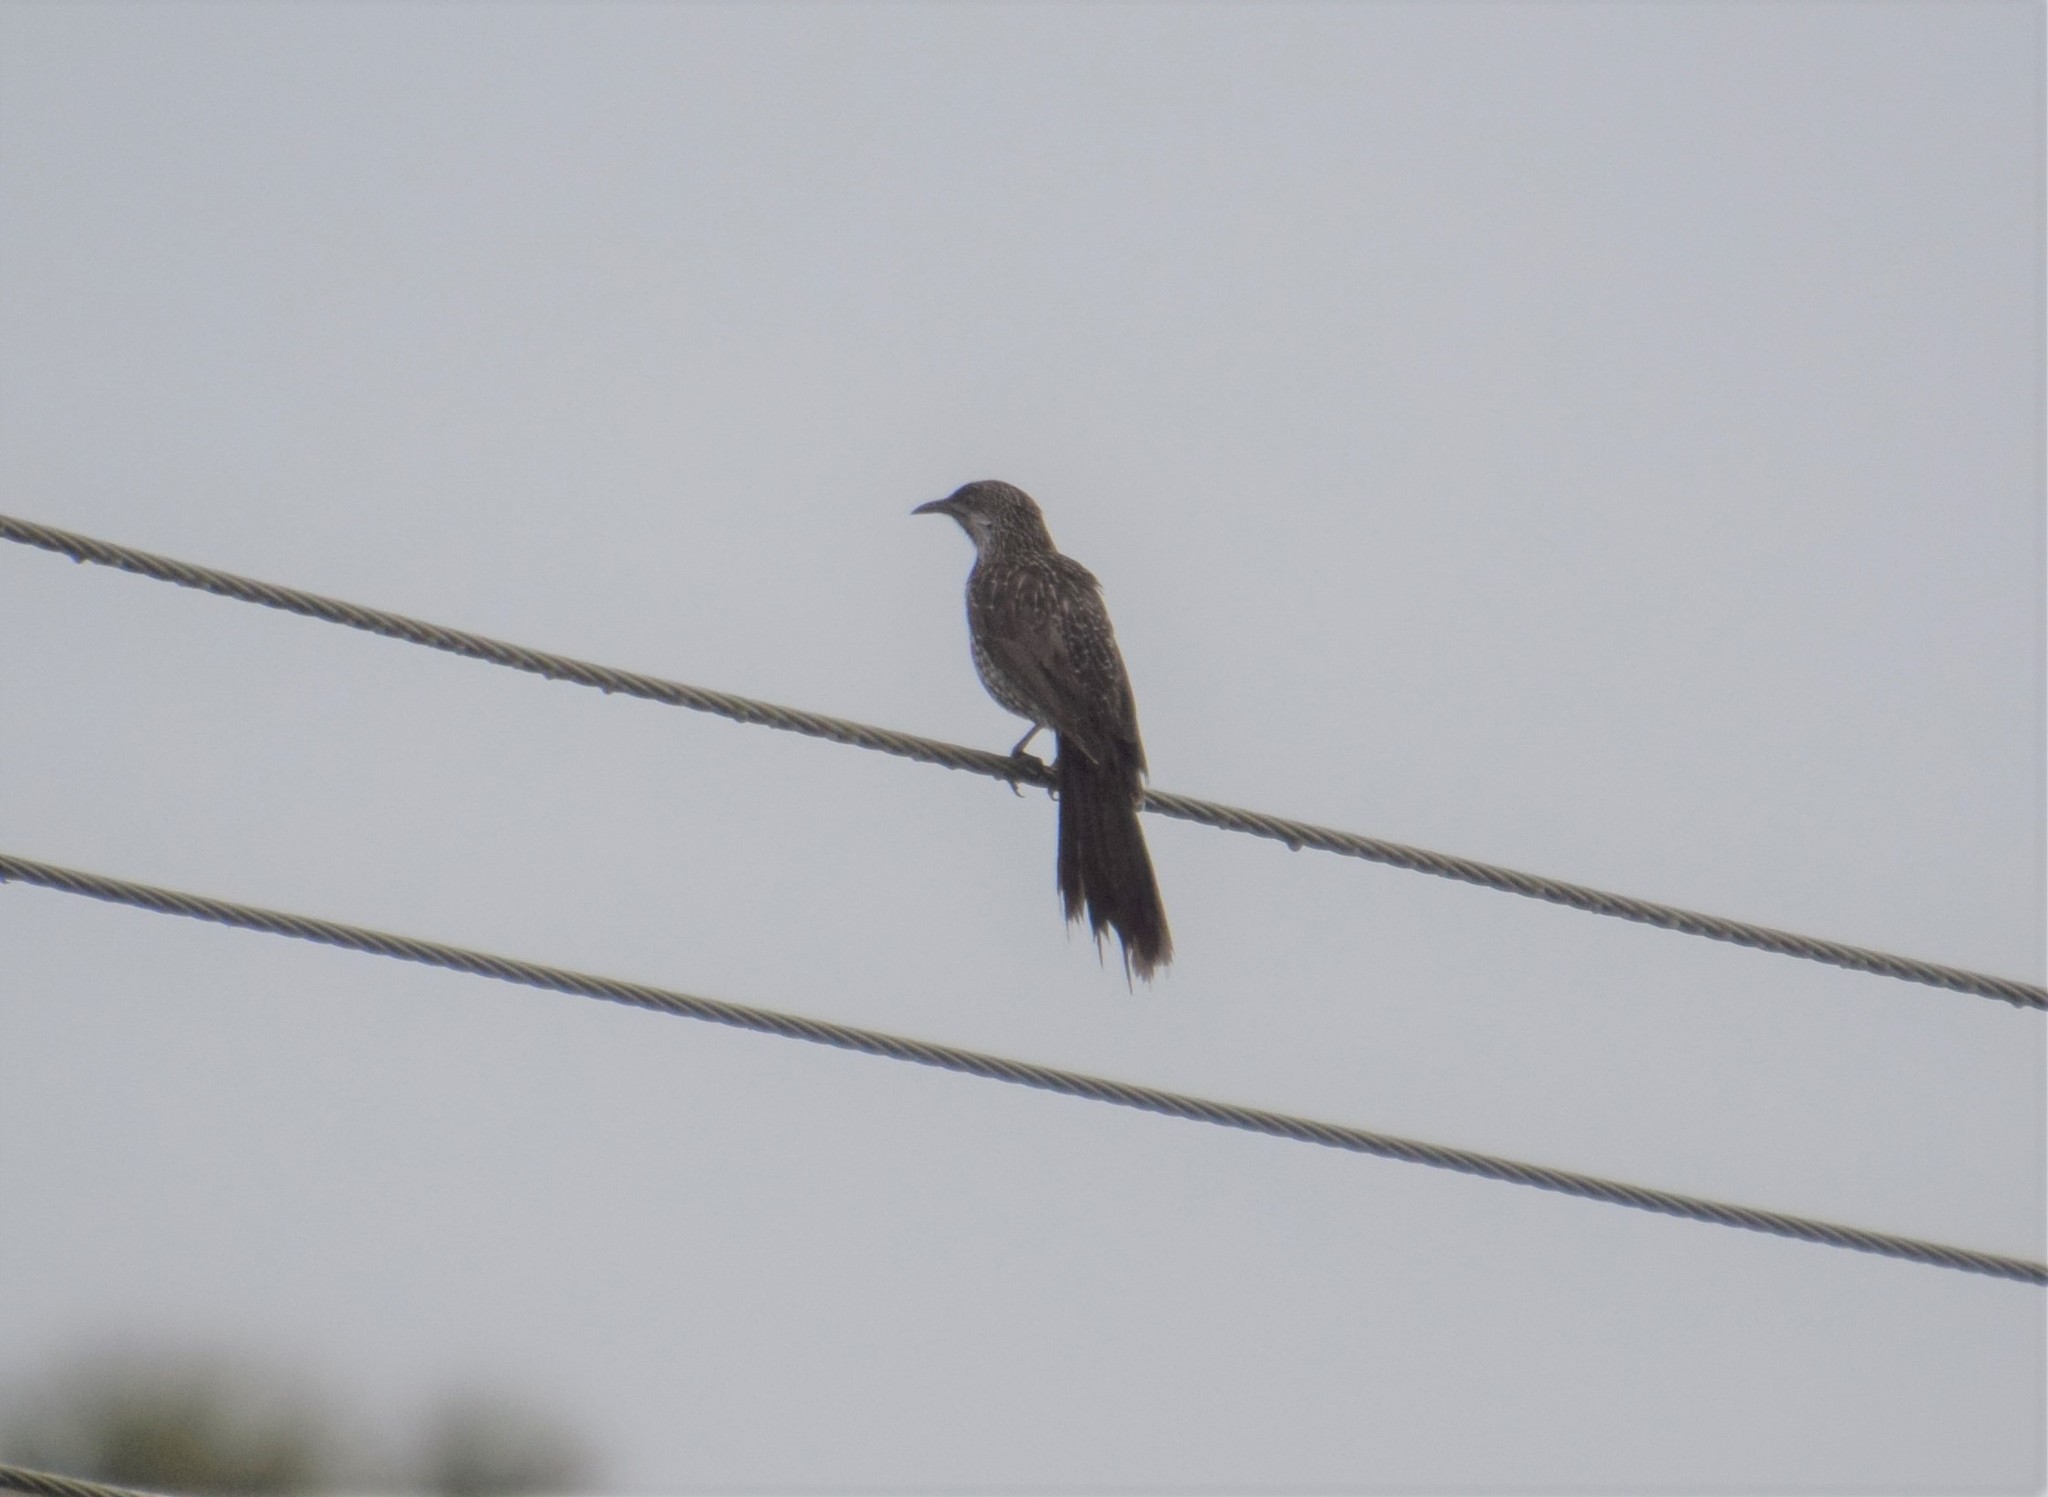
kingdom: Animalia
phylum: Chordata
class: Aves
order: Passeriformes
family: Meliphagidae
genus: Anthochaera
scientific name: Anthochaera chrysoptera
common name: Little wattlebird
